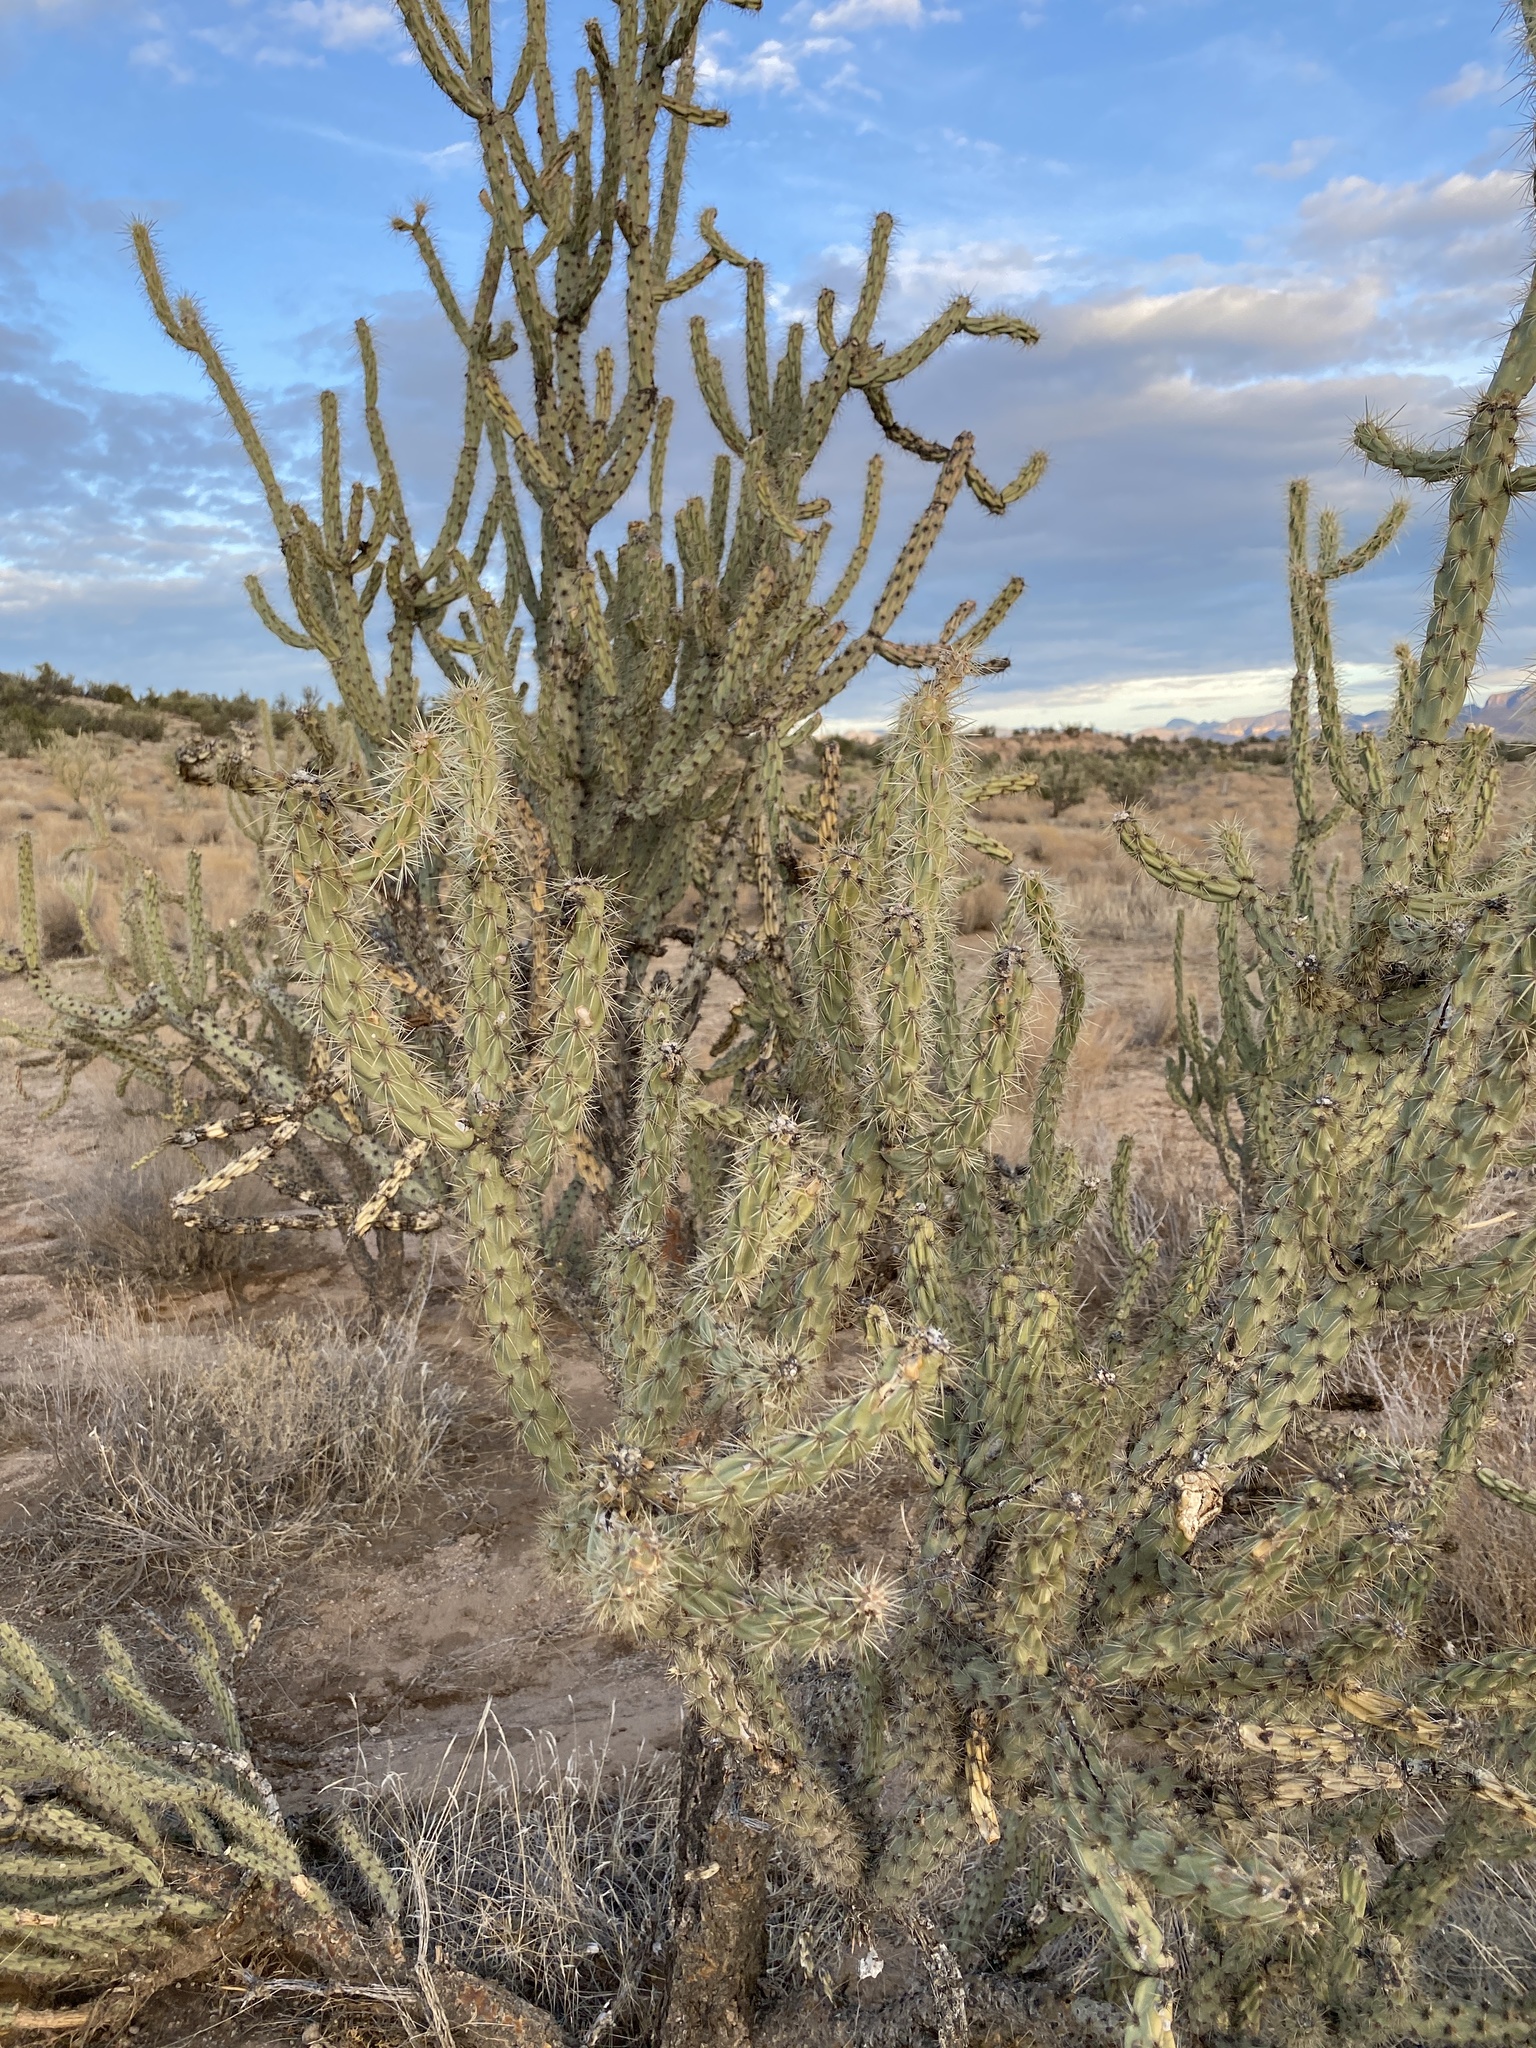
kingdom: Plantae
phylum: Tracheophyta
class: Magnoliopsida
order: Caryophyllales
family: Cactaceae
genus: Cylindropuntia
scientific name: Cylindropuntia acanthocarpa
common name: Buckhorn cholla
